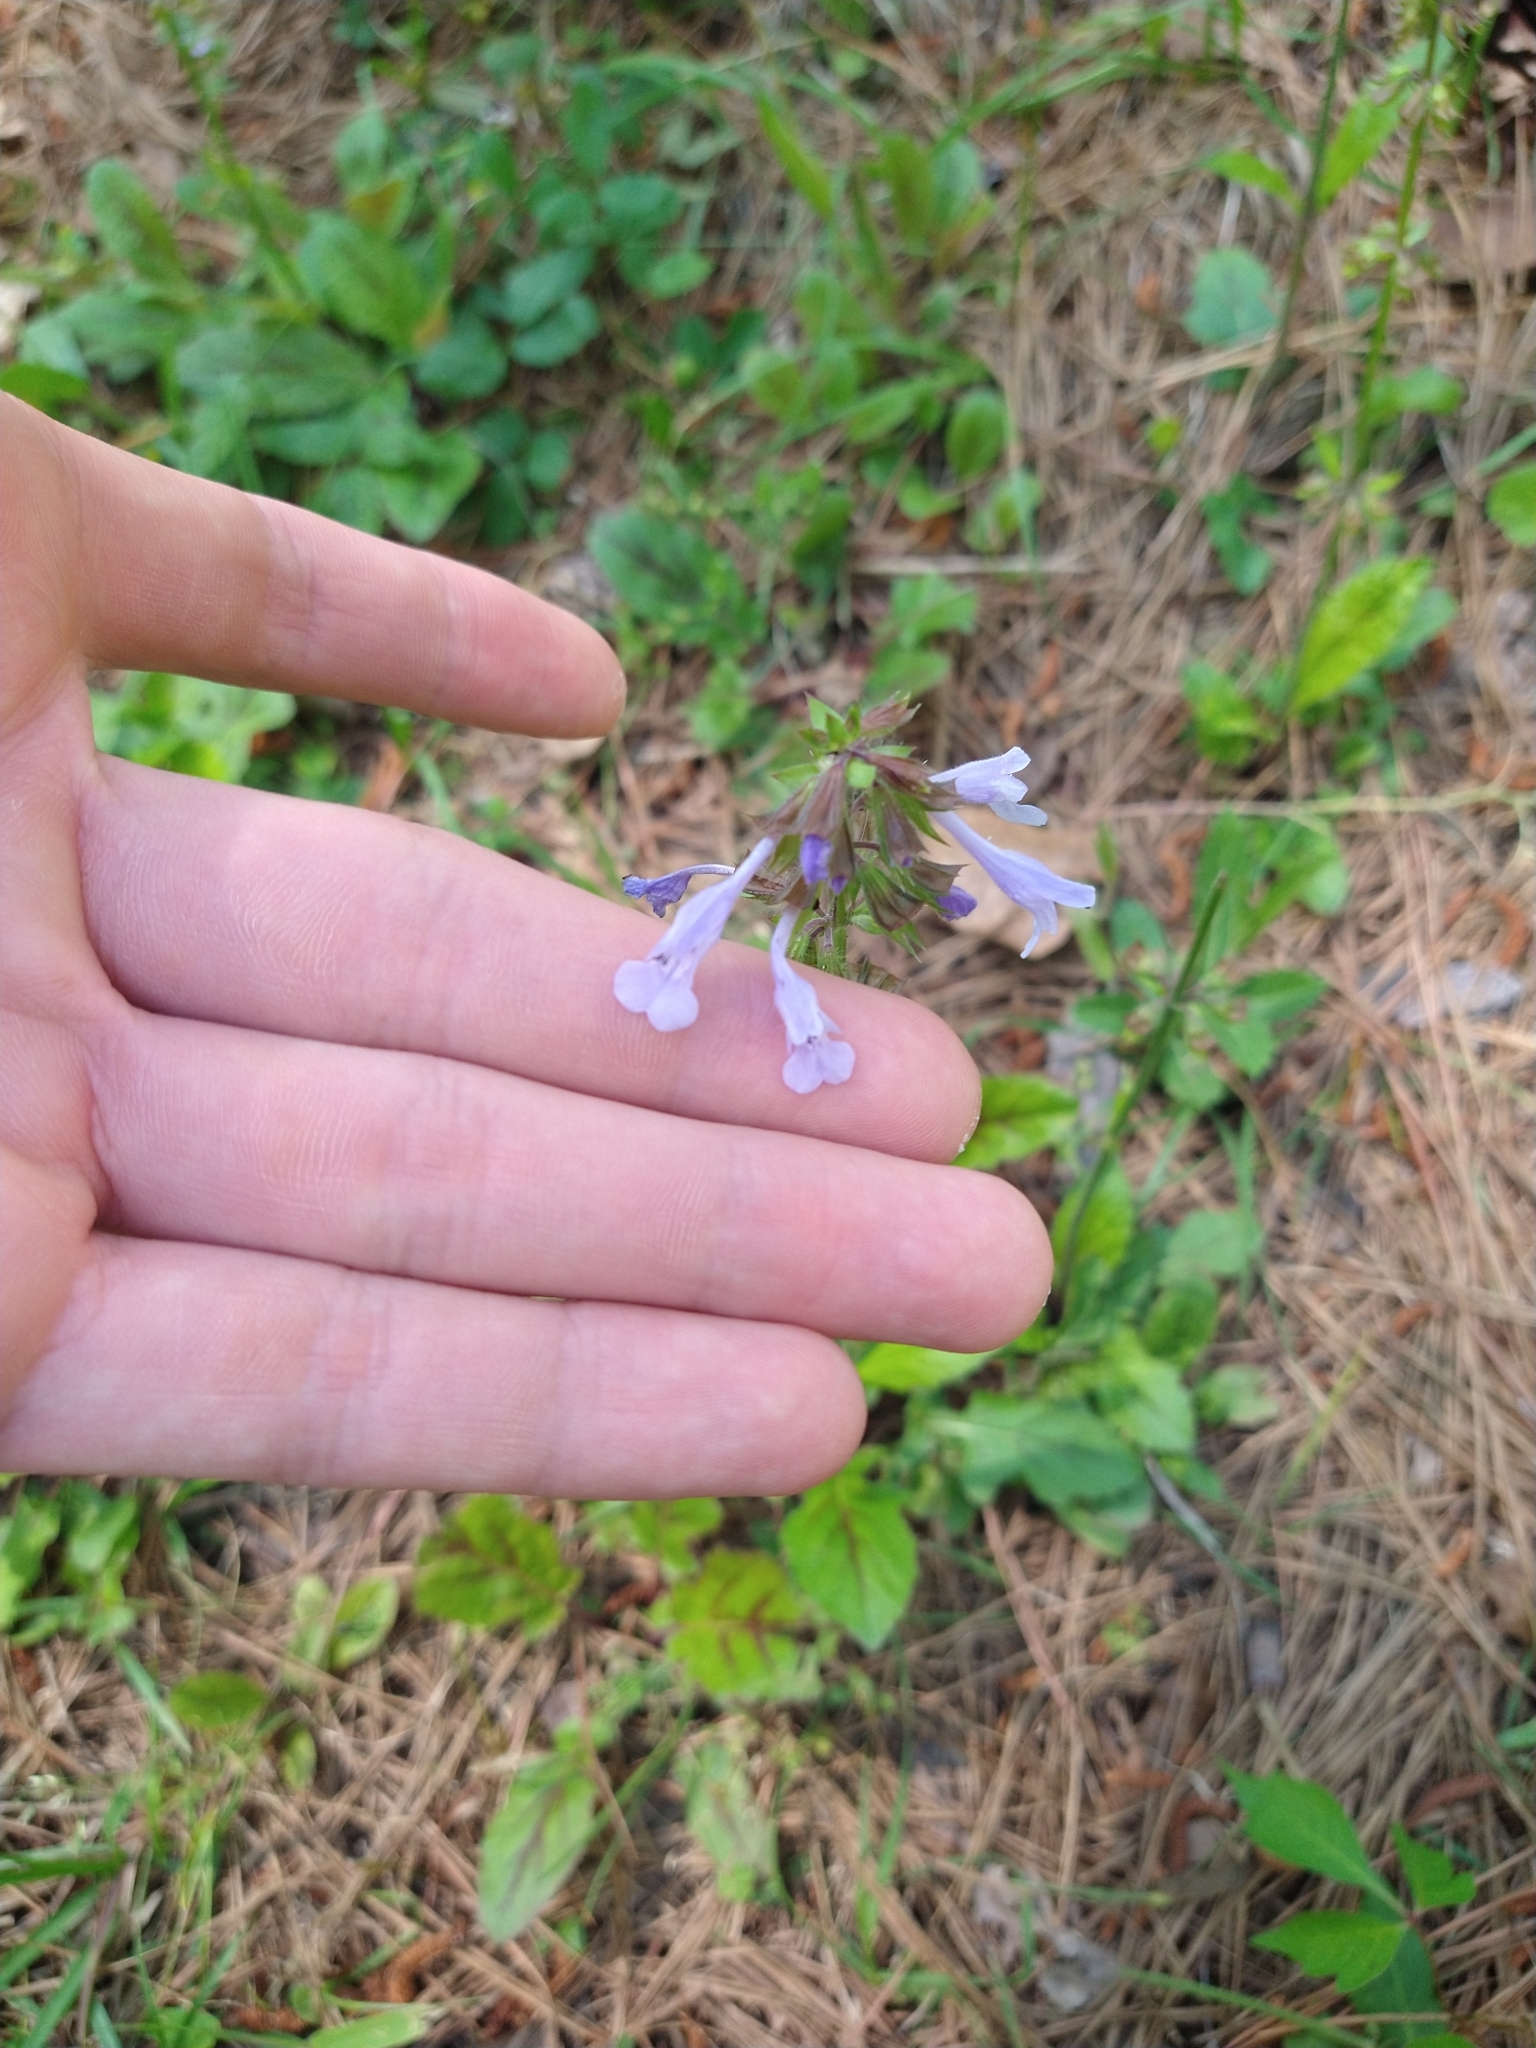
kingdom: Plantae
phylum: Tracheophyta
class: Magnoliopsida
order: Lamiales
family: Lamiaceae
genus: Salvia
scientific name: Salvia lyrata
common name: Cancerweed
